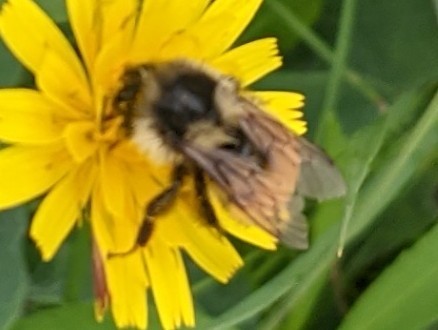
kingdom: Animalia
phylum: Arthropoda
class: Insecta
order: Hymenoptera
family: Apidae
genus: Bombus
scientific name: Bombus ternarius
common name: Tri-colored bumble bee
